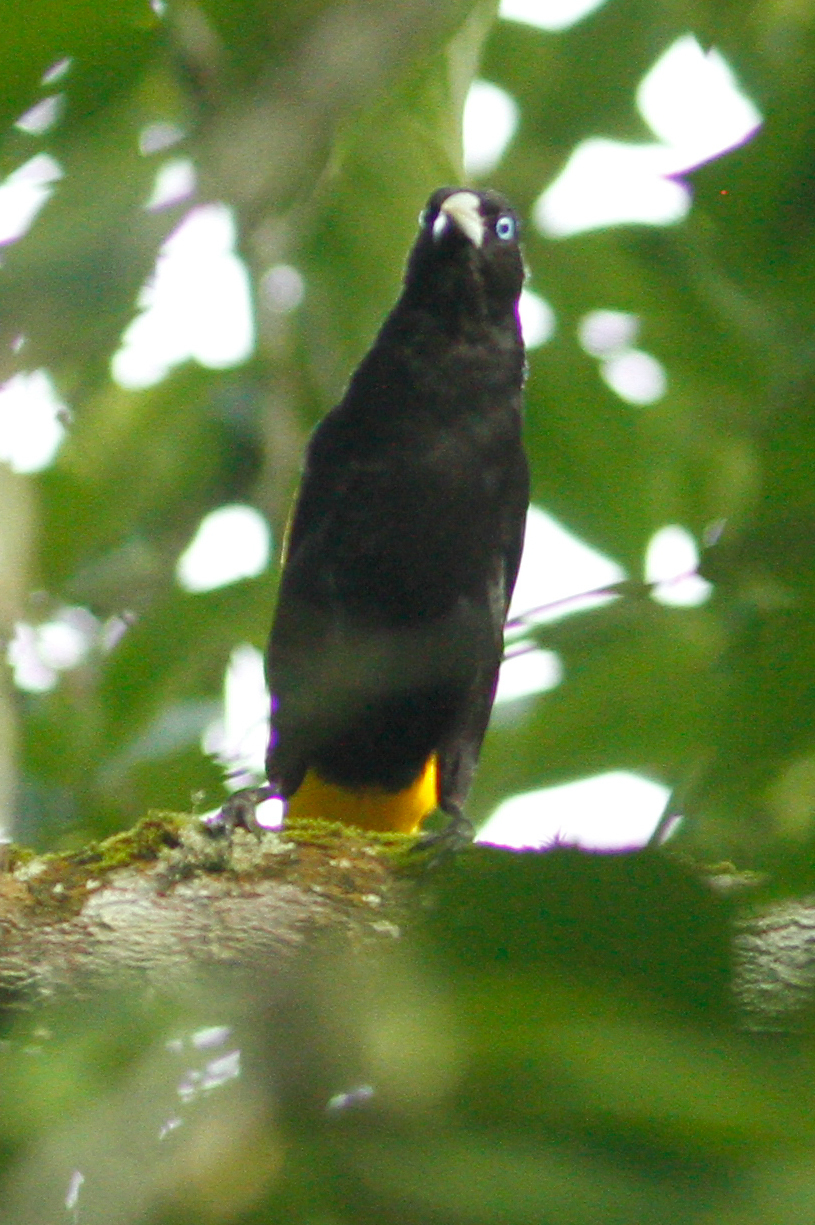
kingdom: Animalia
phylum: Chordata
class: Aves
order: Passeriformes
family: Icteridae
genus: Cacicus
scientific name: Cacicus cela
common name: Yellow-rumped cacique
